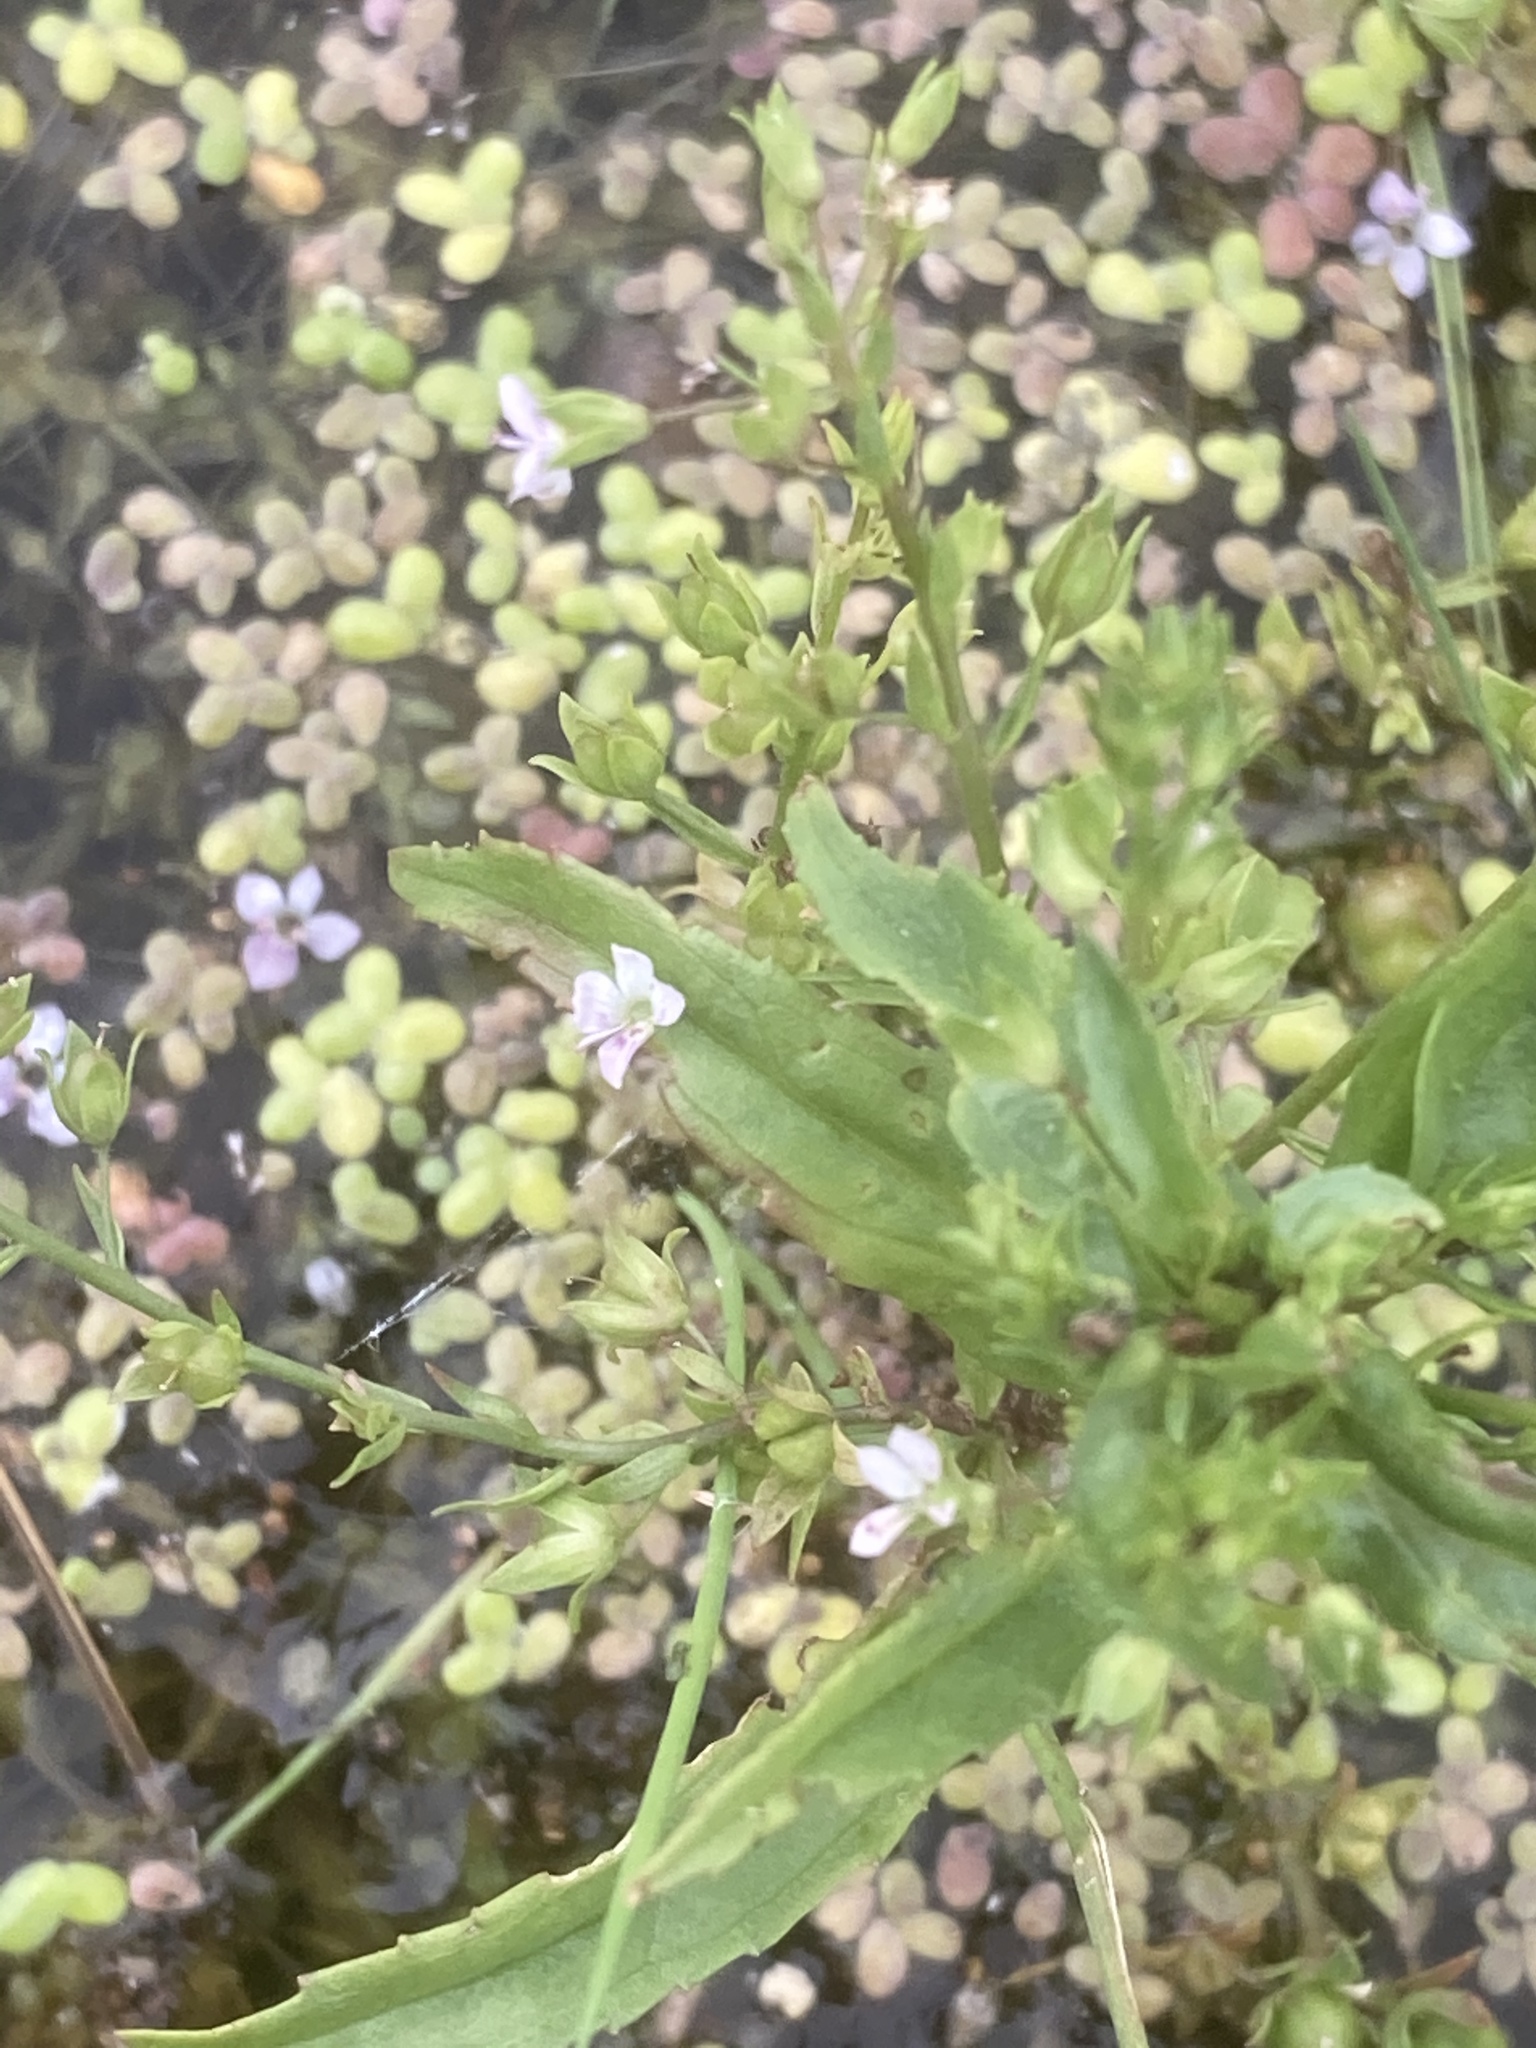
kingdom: Plantae
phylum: Tracheophyta
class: Magnoliopsida
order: Lamiales
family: Plantaginaceae
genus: Veronica
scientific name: Veronica anagallis-aquatica
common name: Water speedwell
